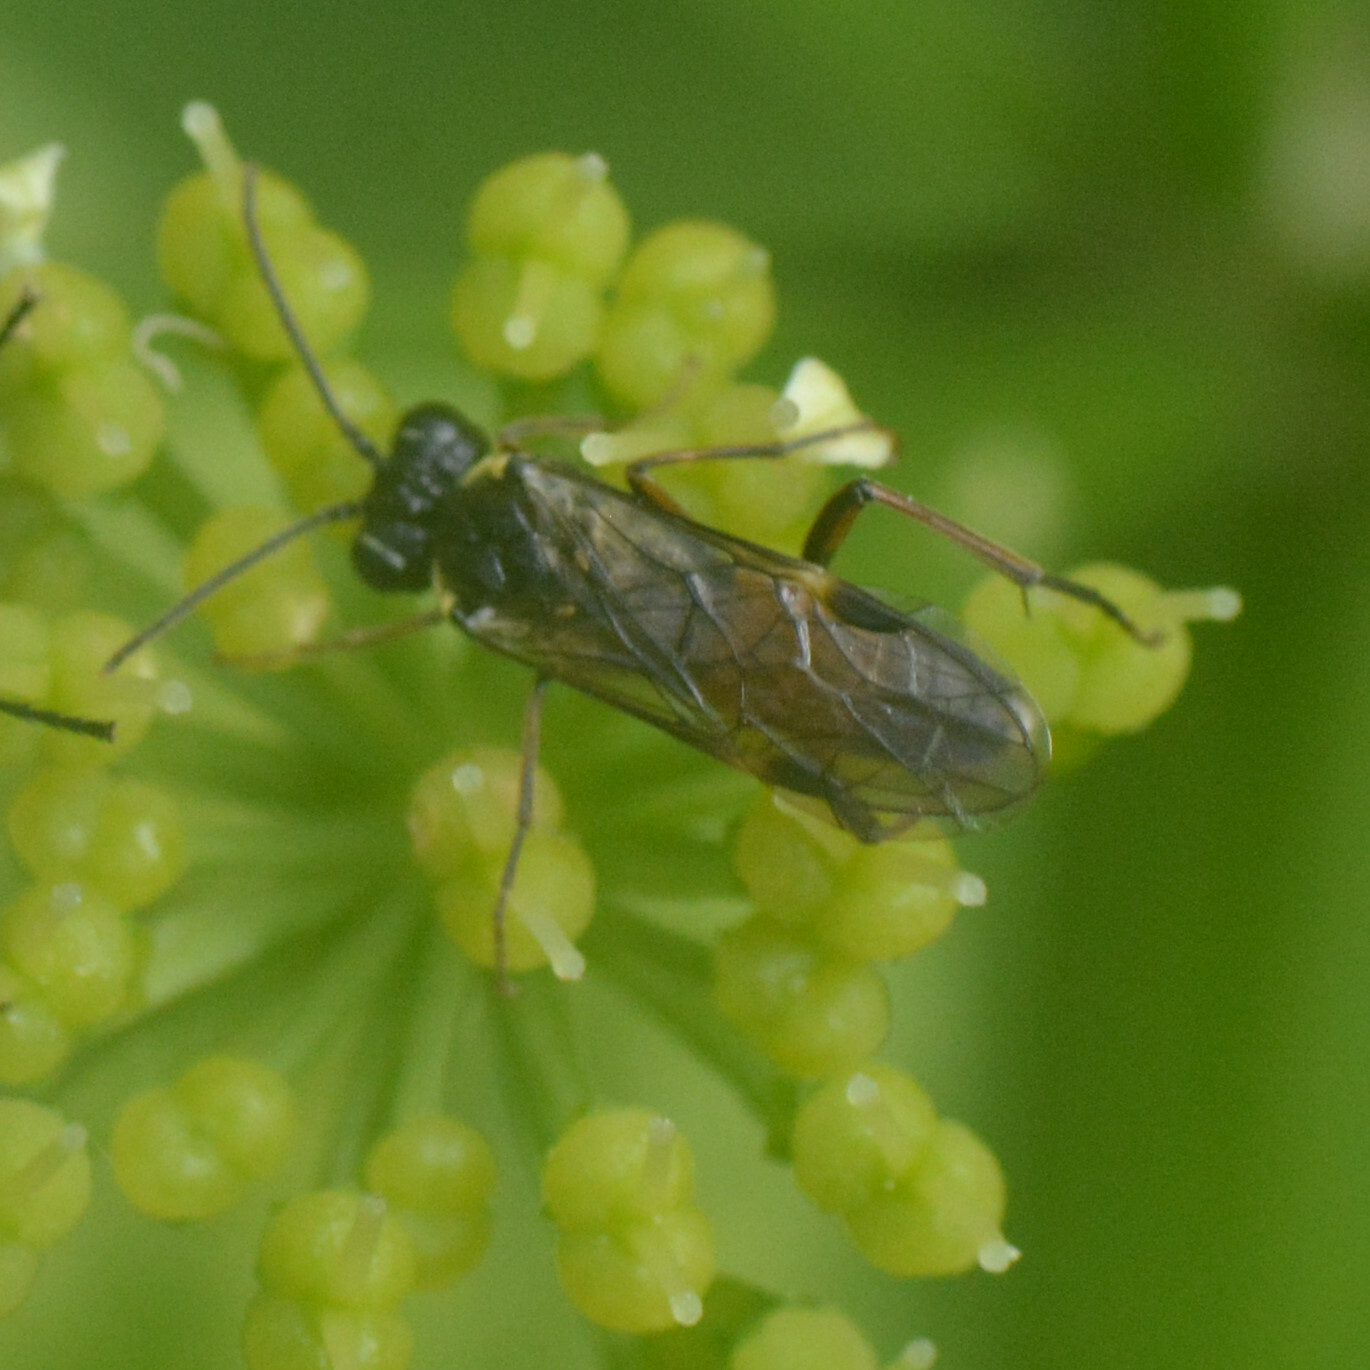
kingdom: Animalia
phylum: Arthropoda
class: Insecta
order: Hymenoptera
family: Tenthredinidae
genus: Aglaostigma
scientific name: Aglaostigma aucupariae
